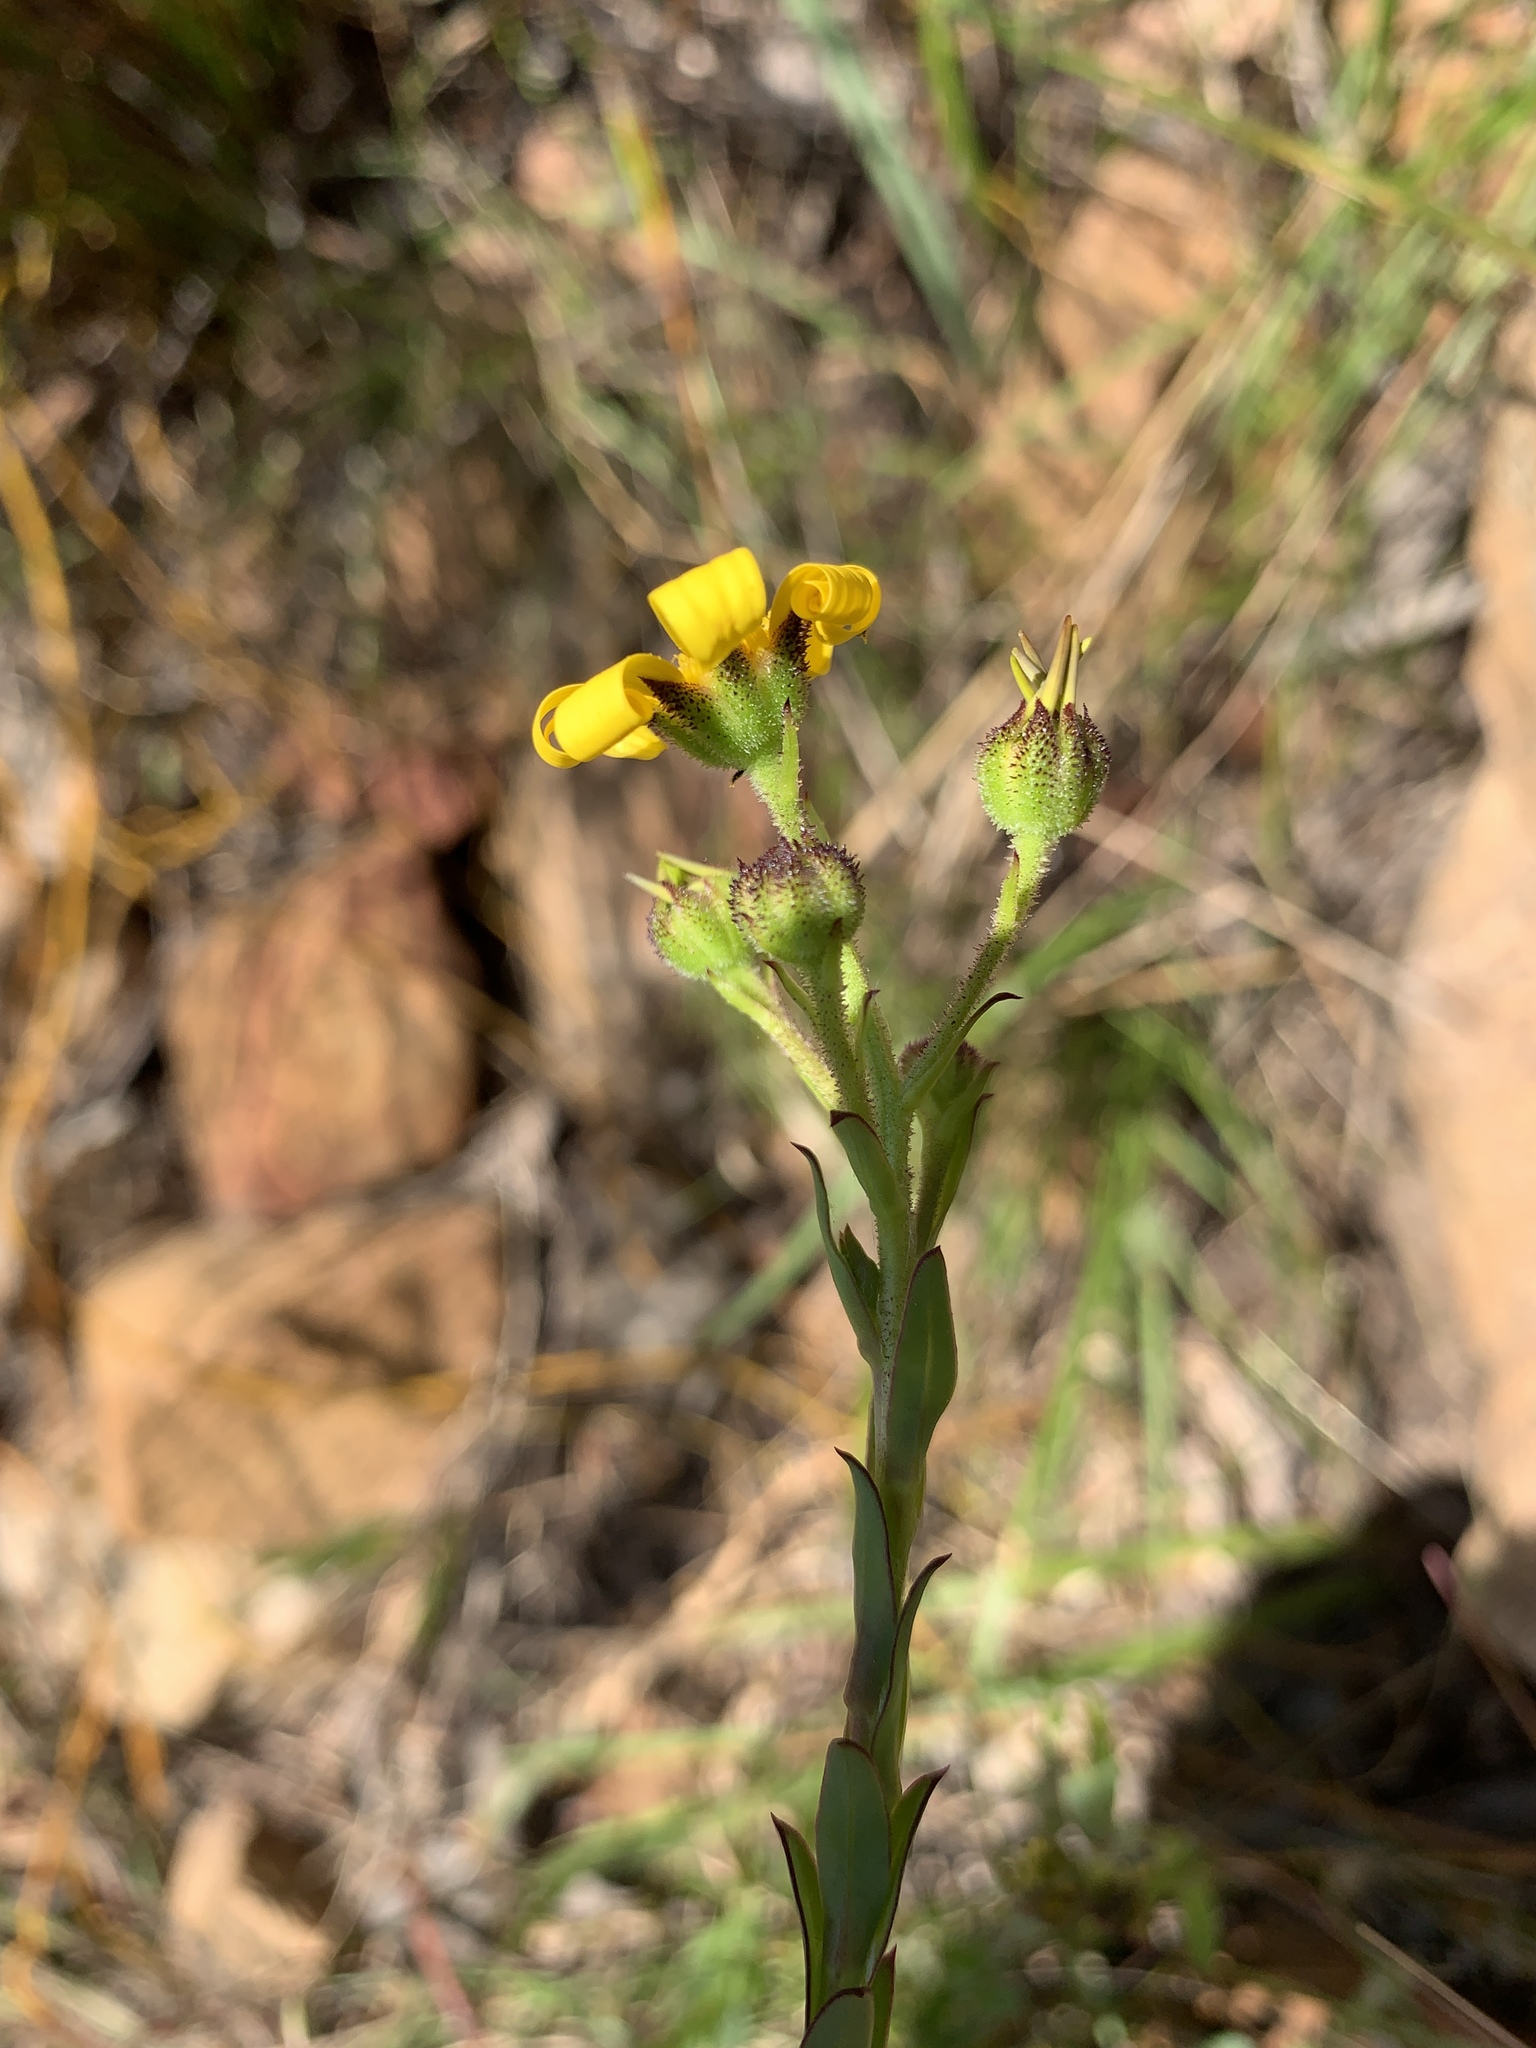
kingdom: Plantae
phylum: Tracheophyta
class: Magnoliopsida
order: Asterales
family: Asteraceae
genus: Osteospermum
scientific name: Osteospermum polygaloides
